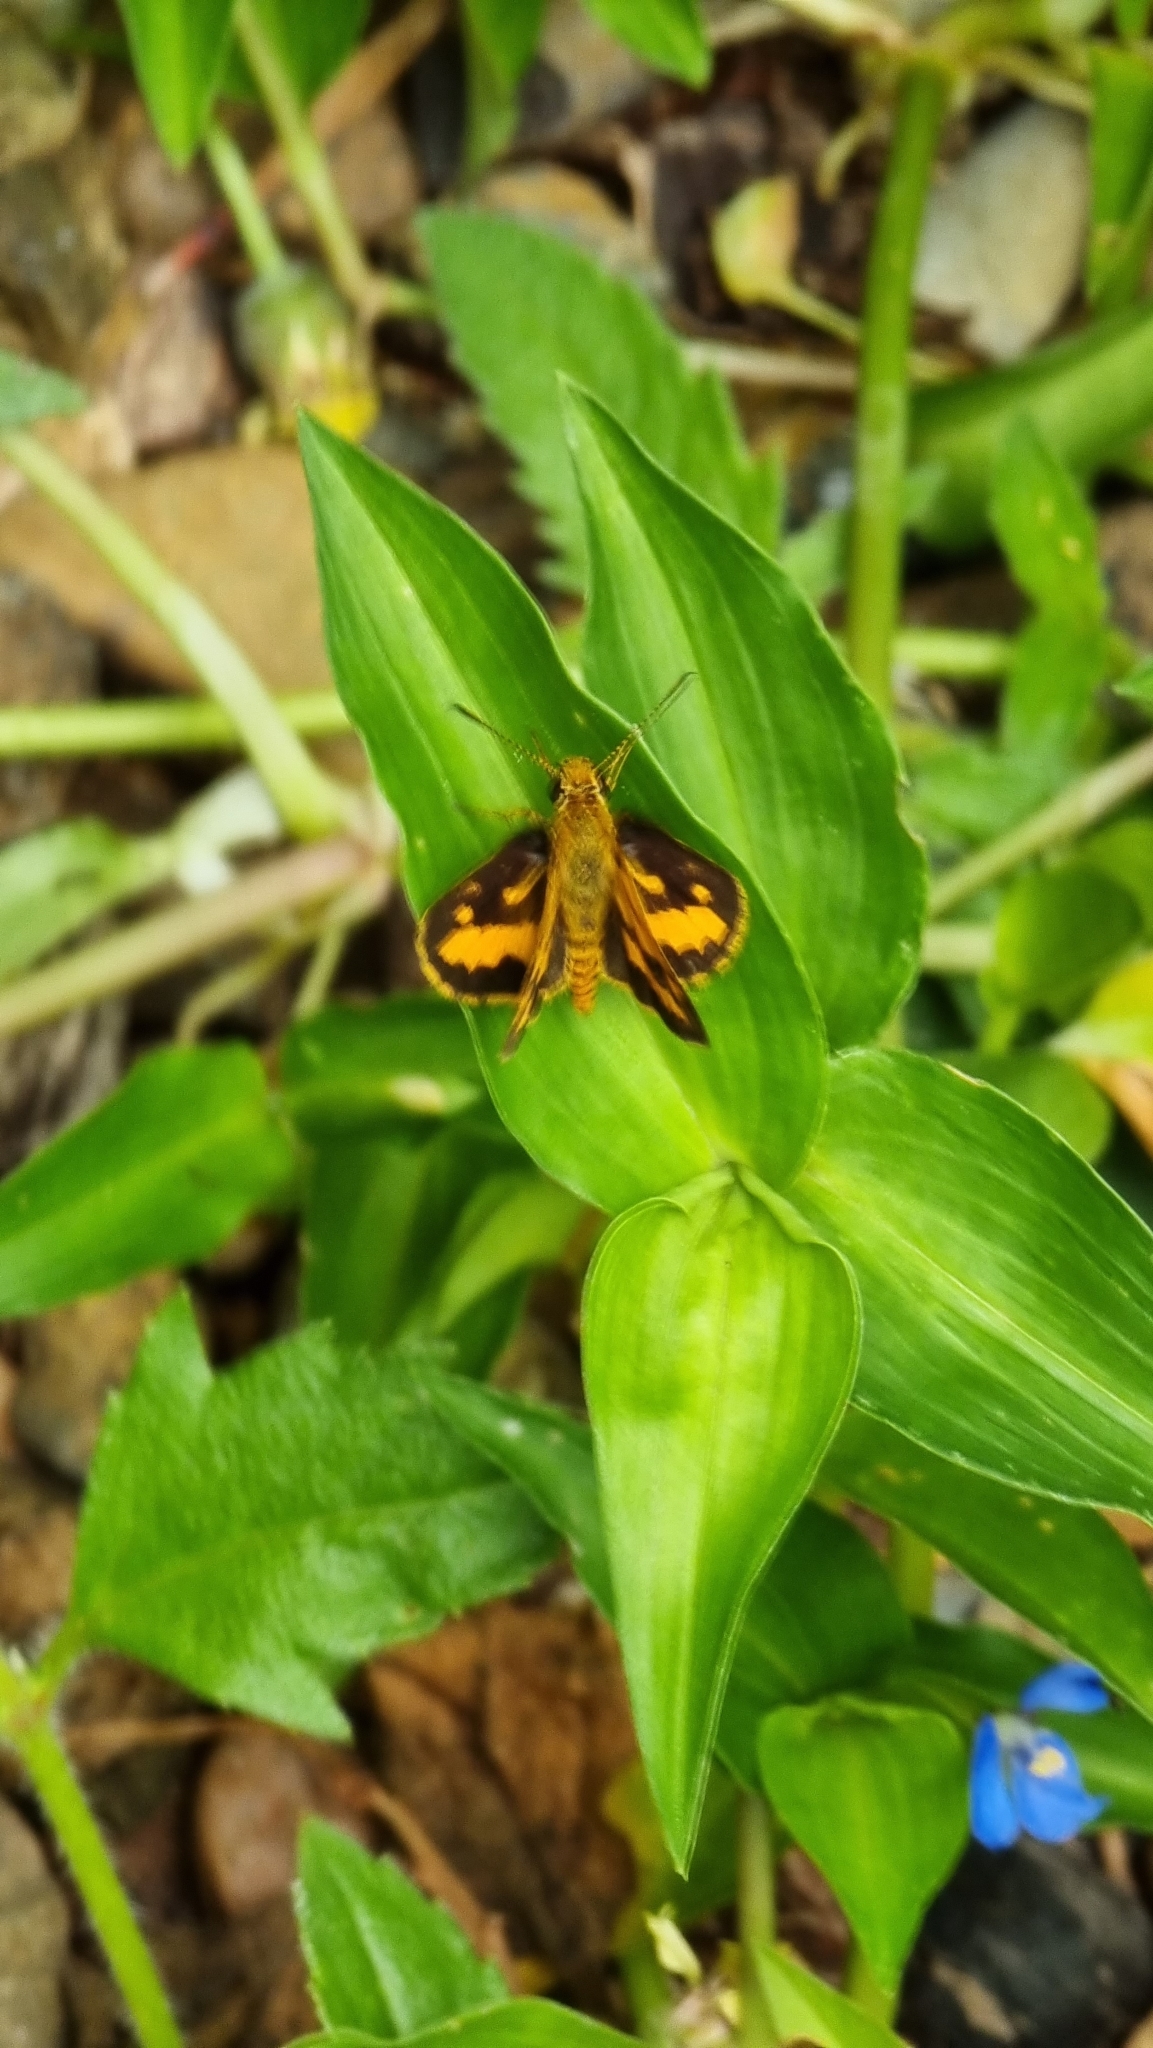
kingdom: Animalia
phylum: Arthropoda
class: Insecta
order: Lepidoptera
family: Hesperiidae
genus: Suniana
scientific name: Suniana sunias
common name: Wide-brand grass-dart
